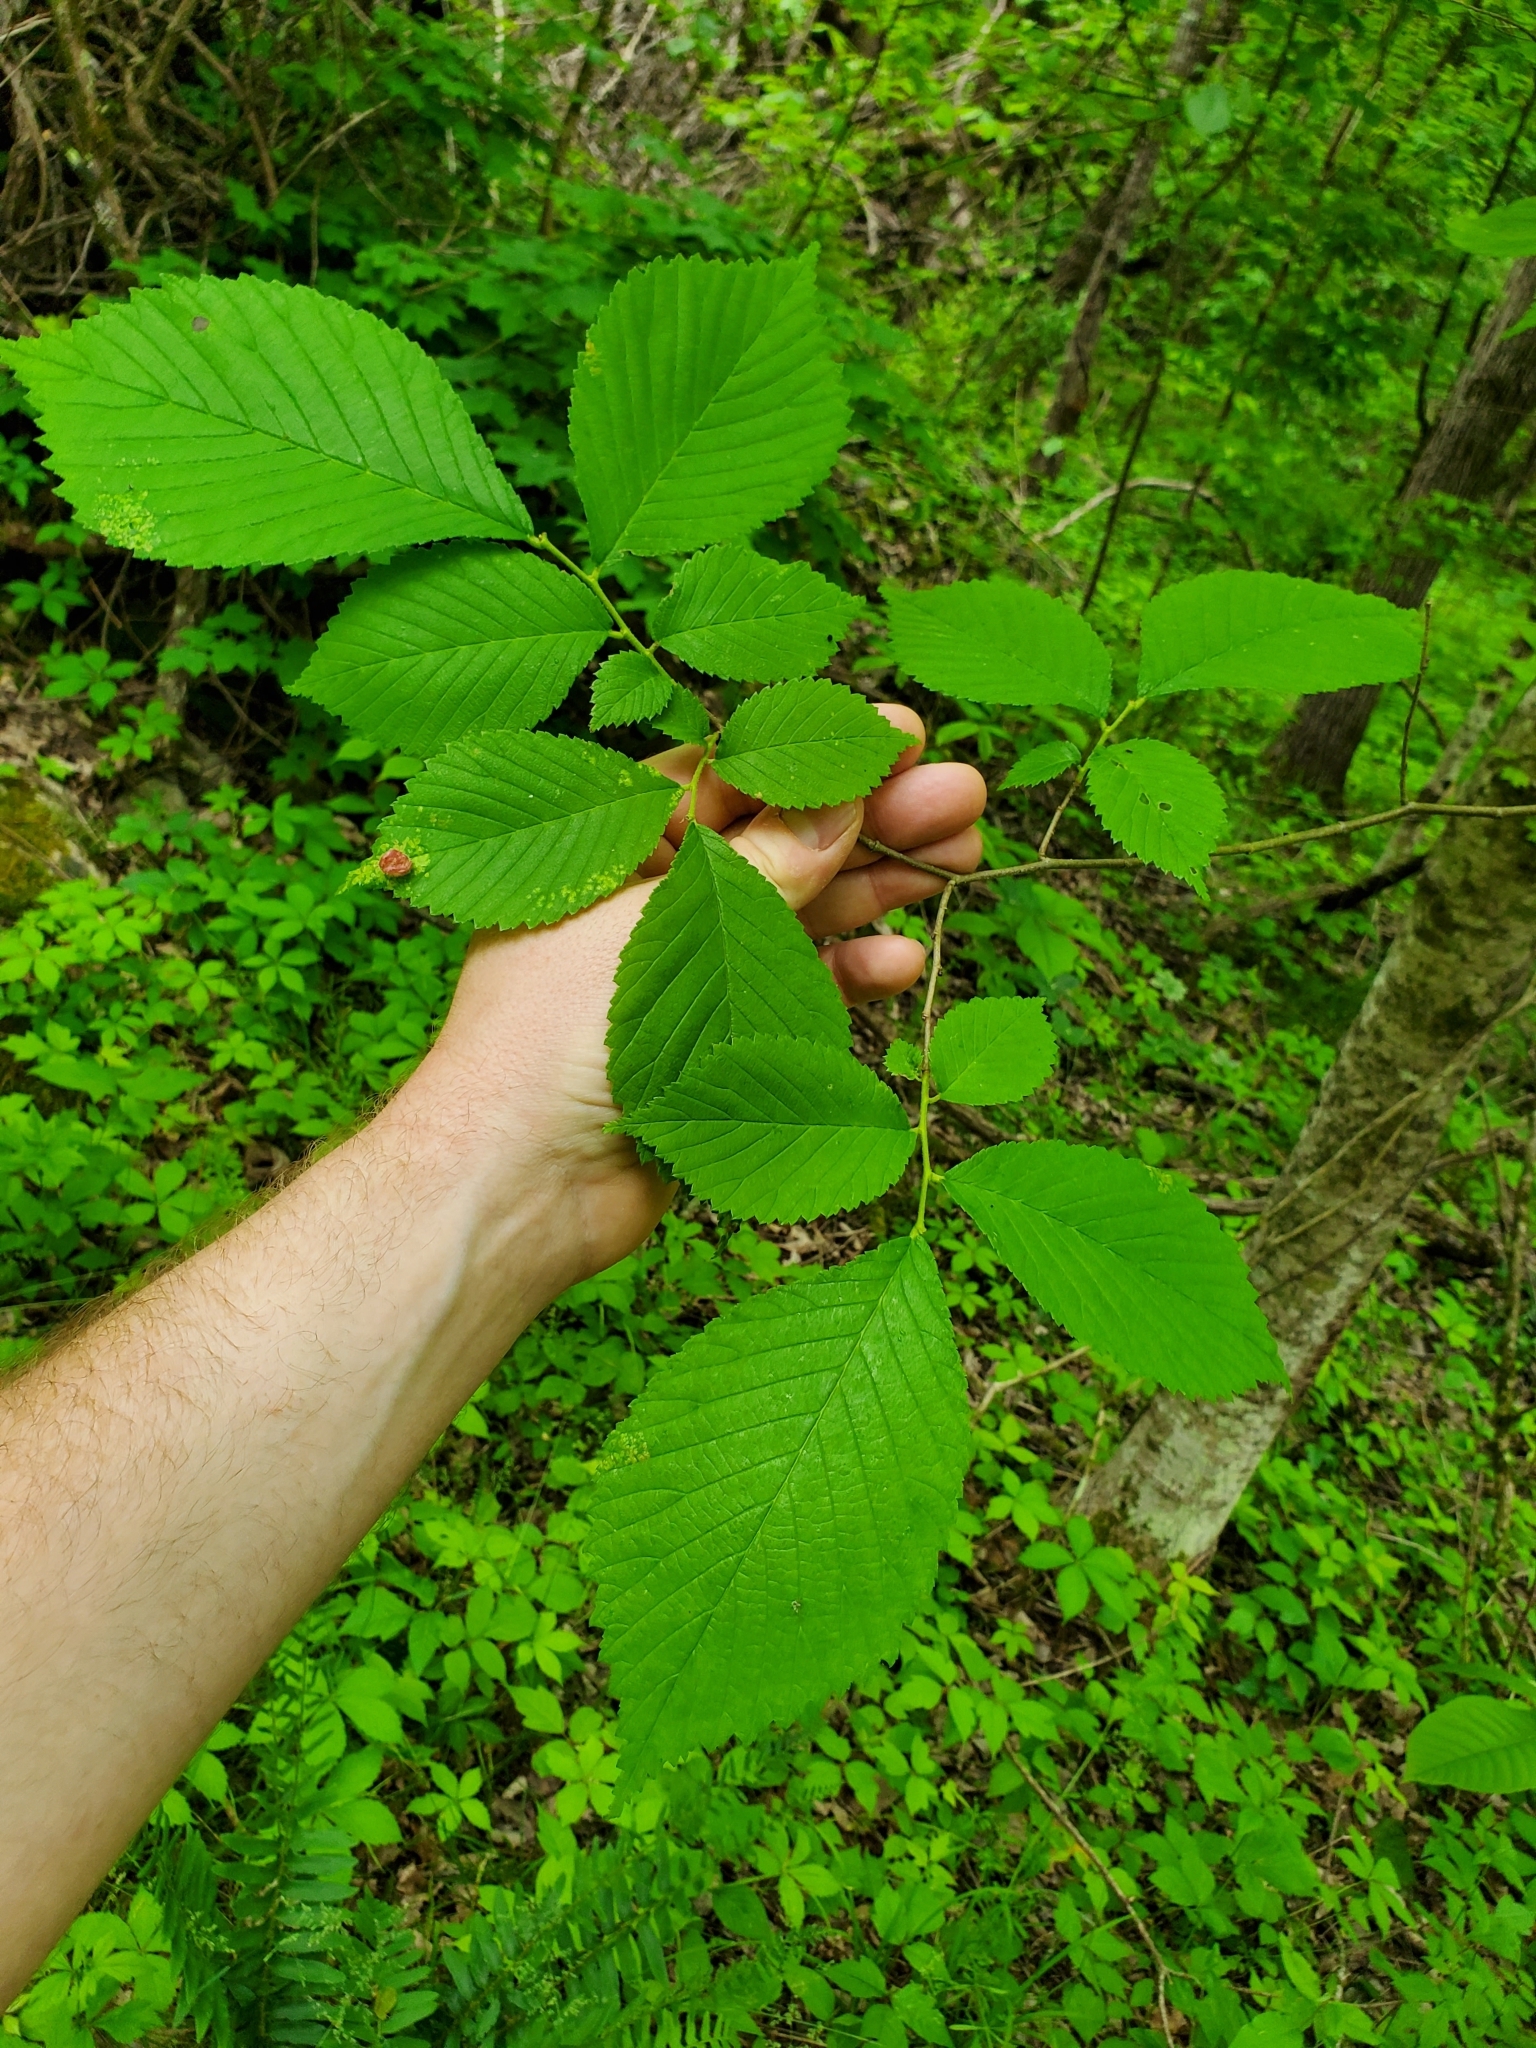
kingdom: Animalia
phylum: Arthropoda
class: Insecta
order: Hemiptera
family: Aphididae
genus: Tetraneura
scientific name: Tetraneura nigriabdominalis
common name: Aphid
